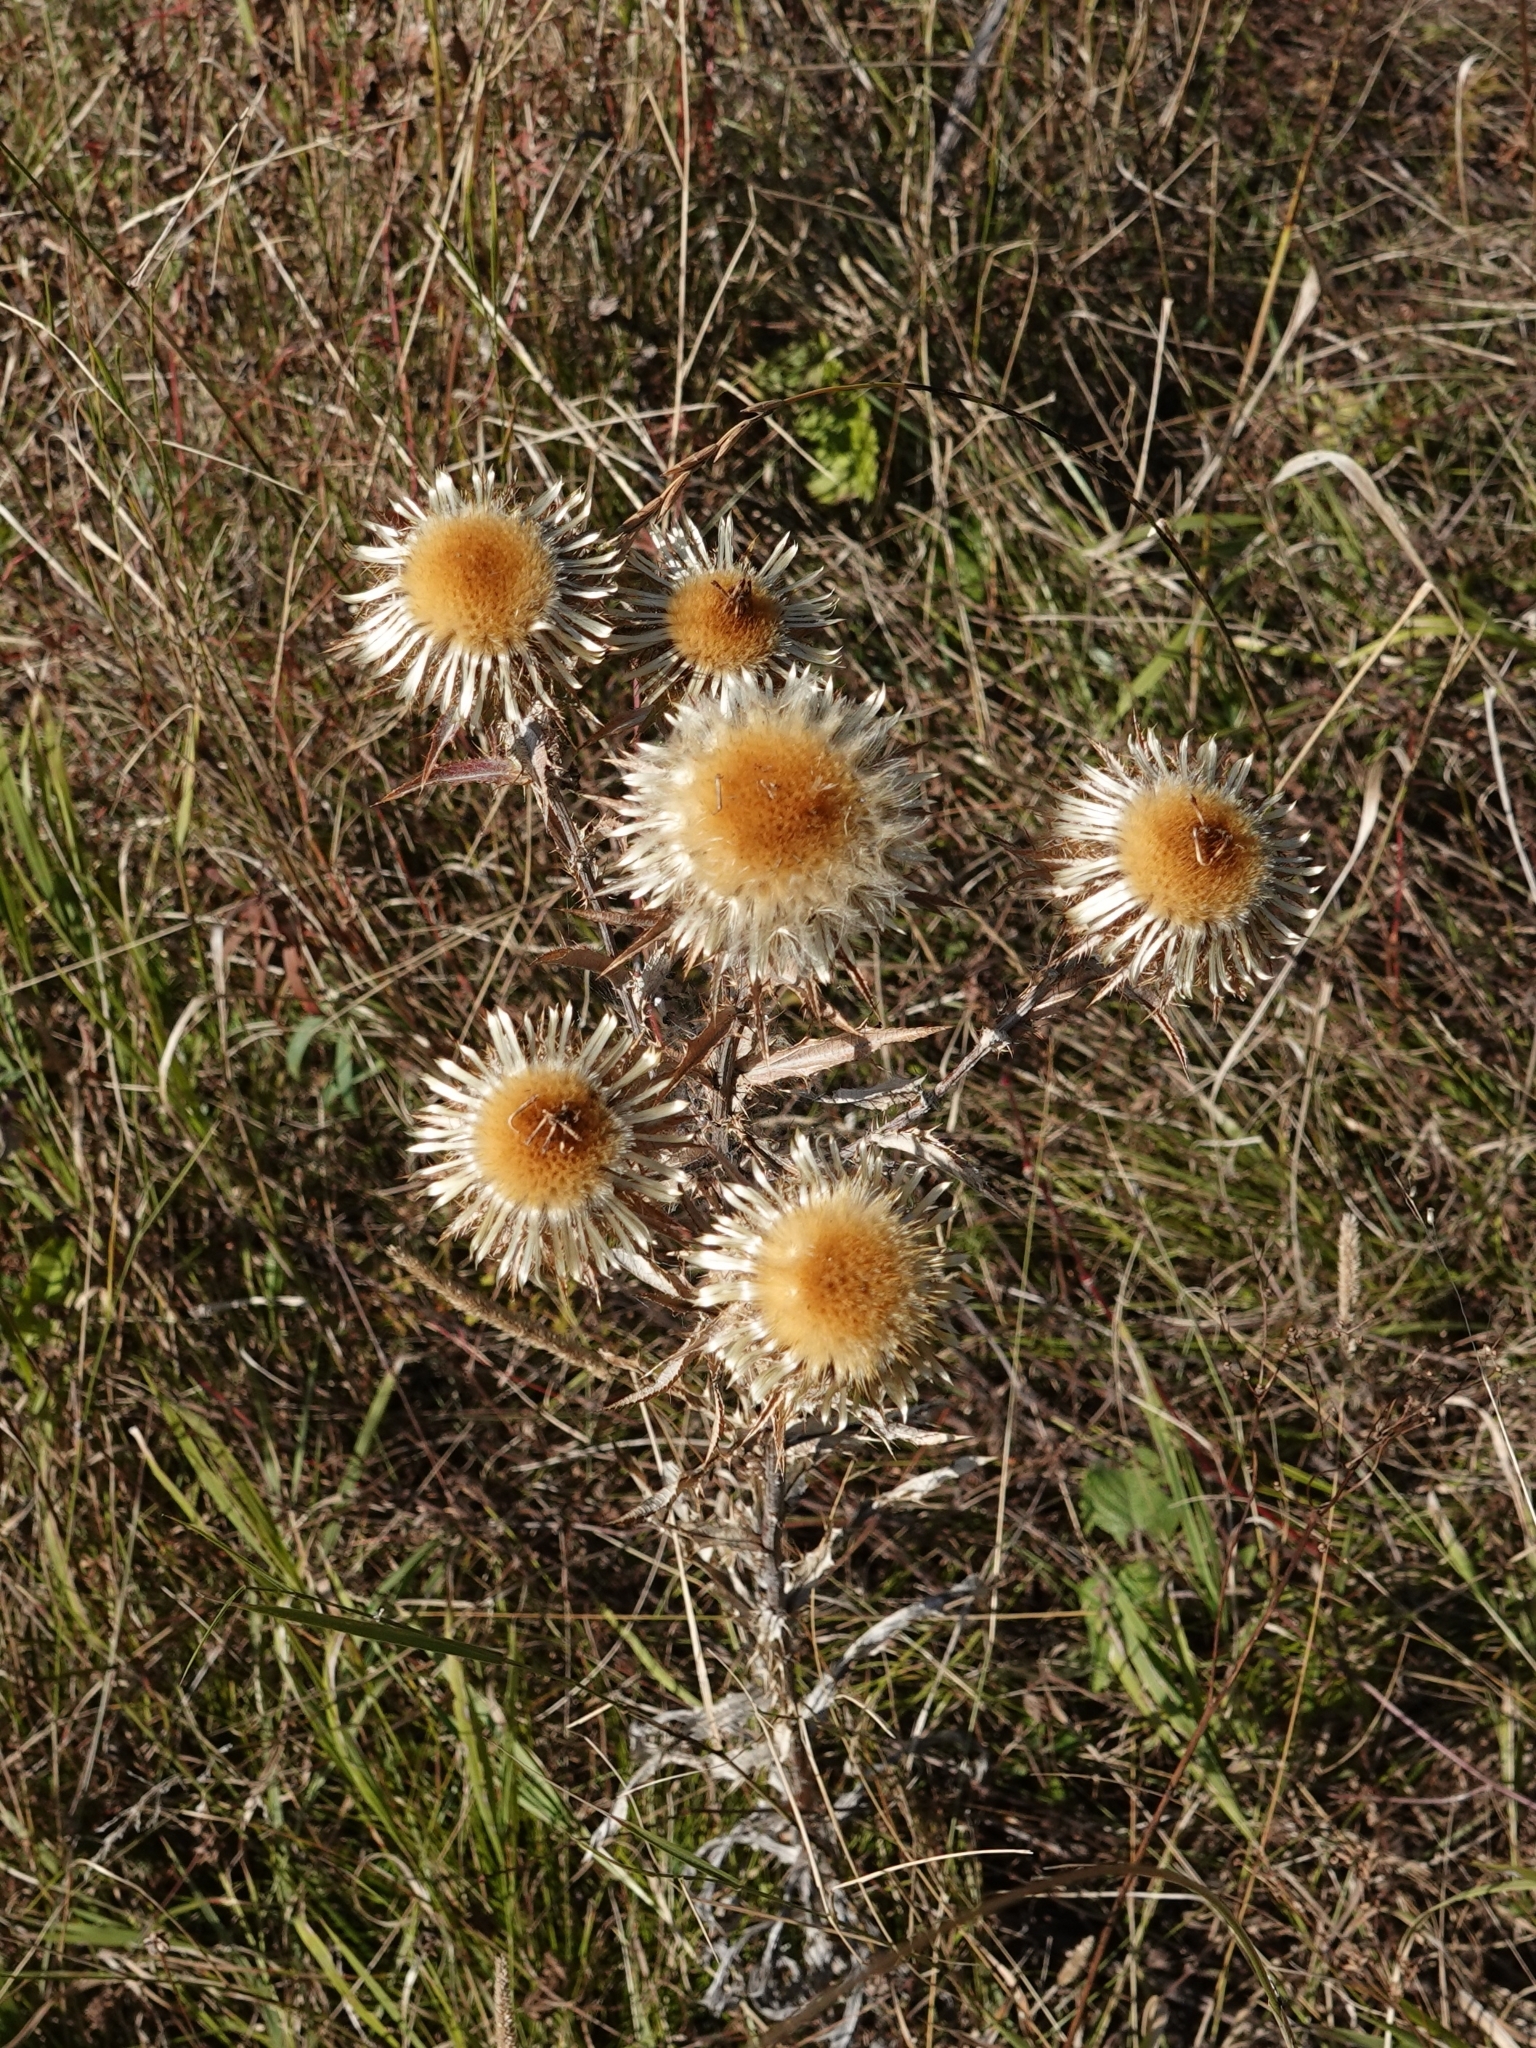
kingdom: Plantae
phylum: Tracheophyta
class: Magnoliopsida
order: Asterales
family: Asteraceae
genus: Carlina
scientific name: Carlina biebersteinii
